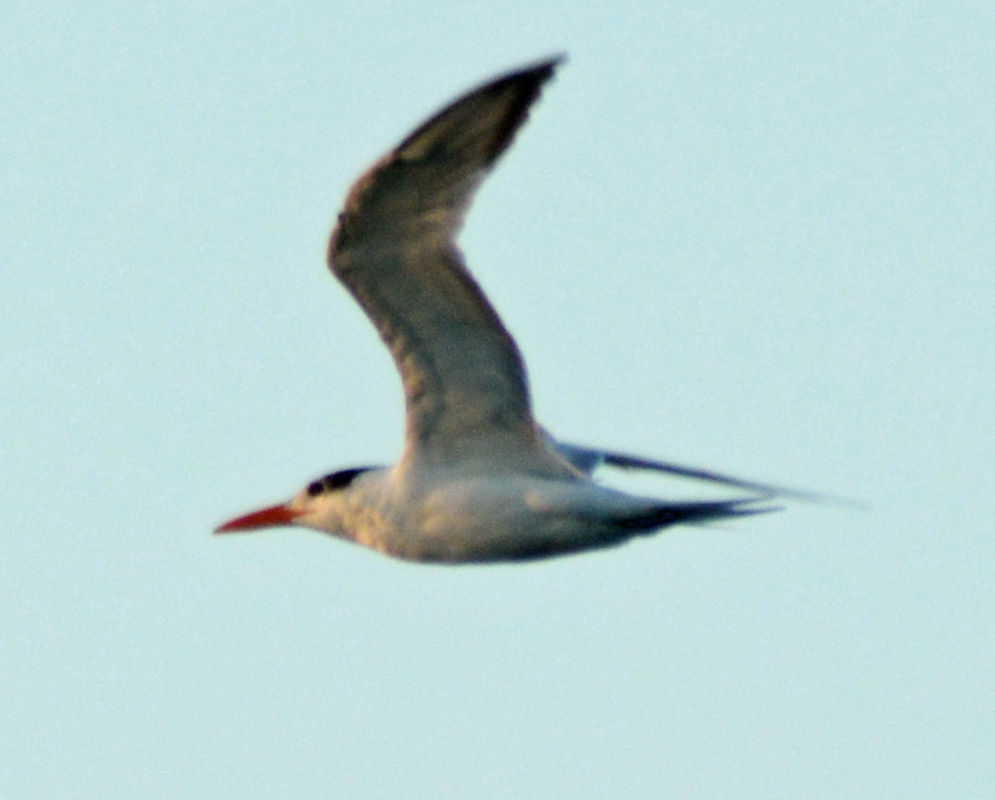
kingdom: Animalia
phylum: Chordata
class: Aves
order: Charadriiformes
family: Laridae
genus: Thalasseus
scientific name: Thalasseus maximus
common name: Royal tern
